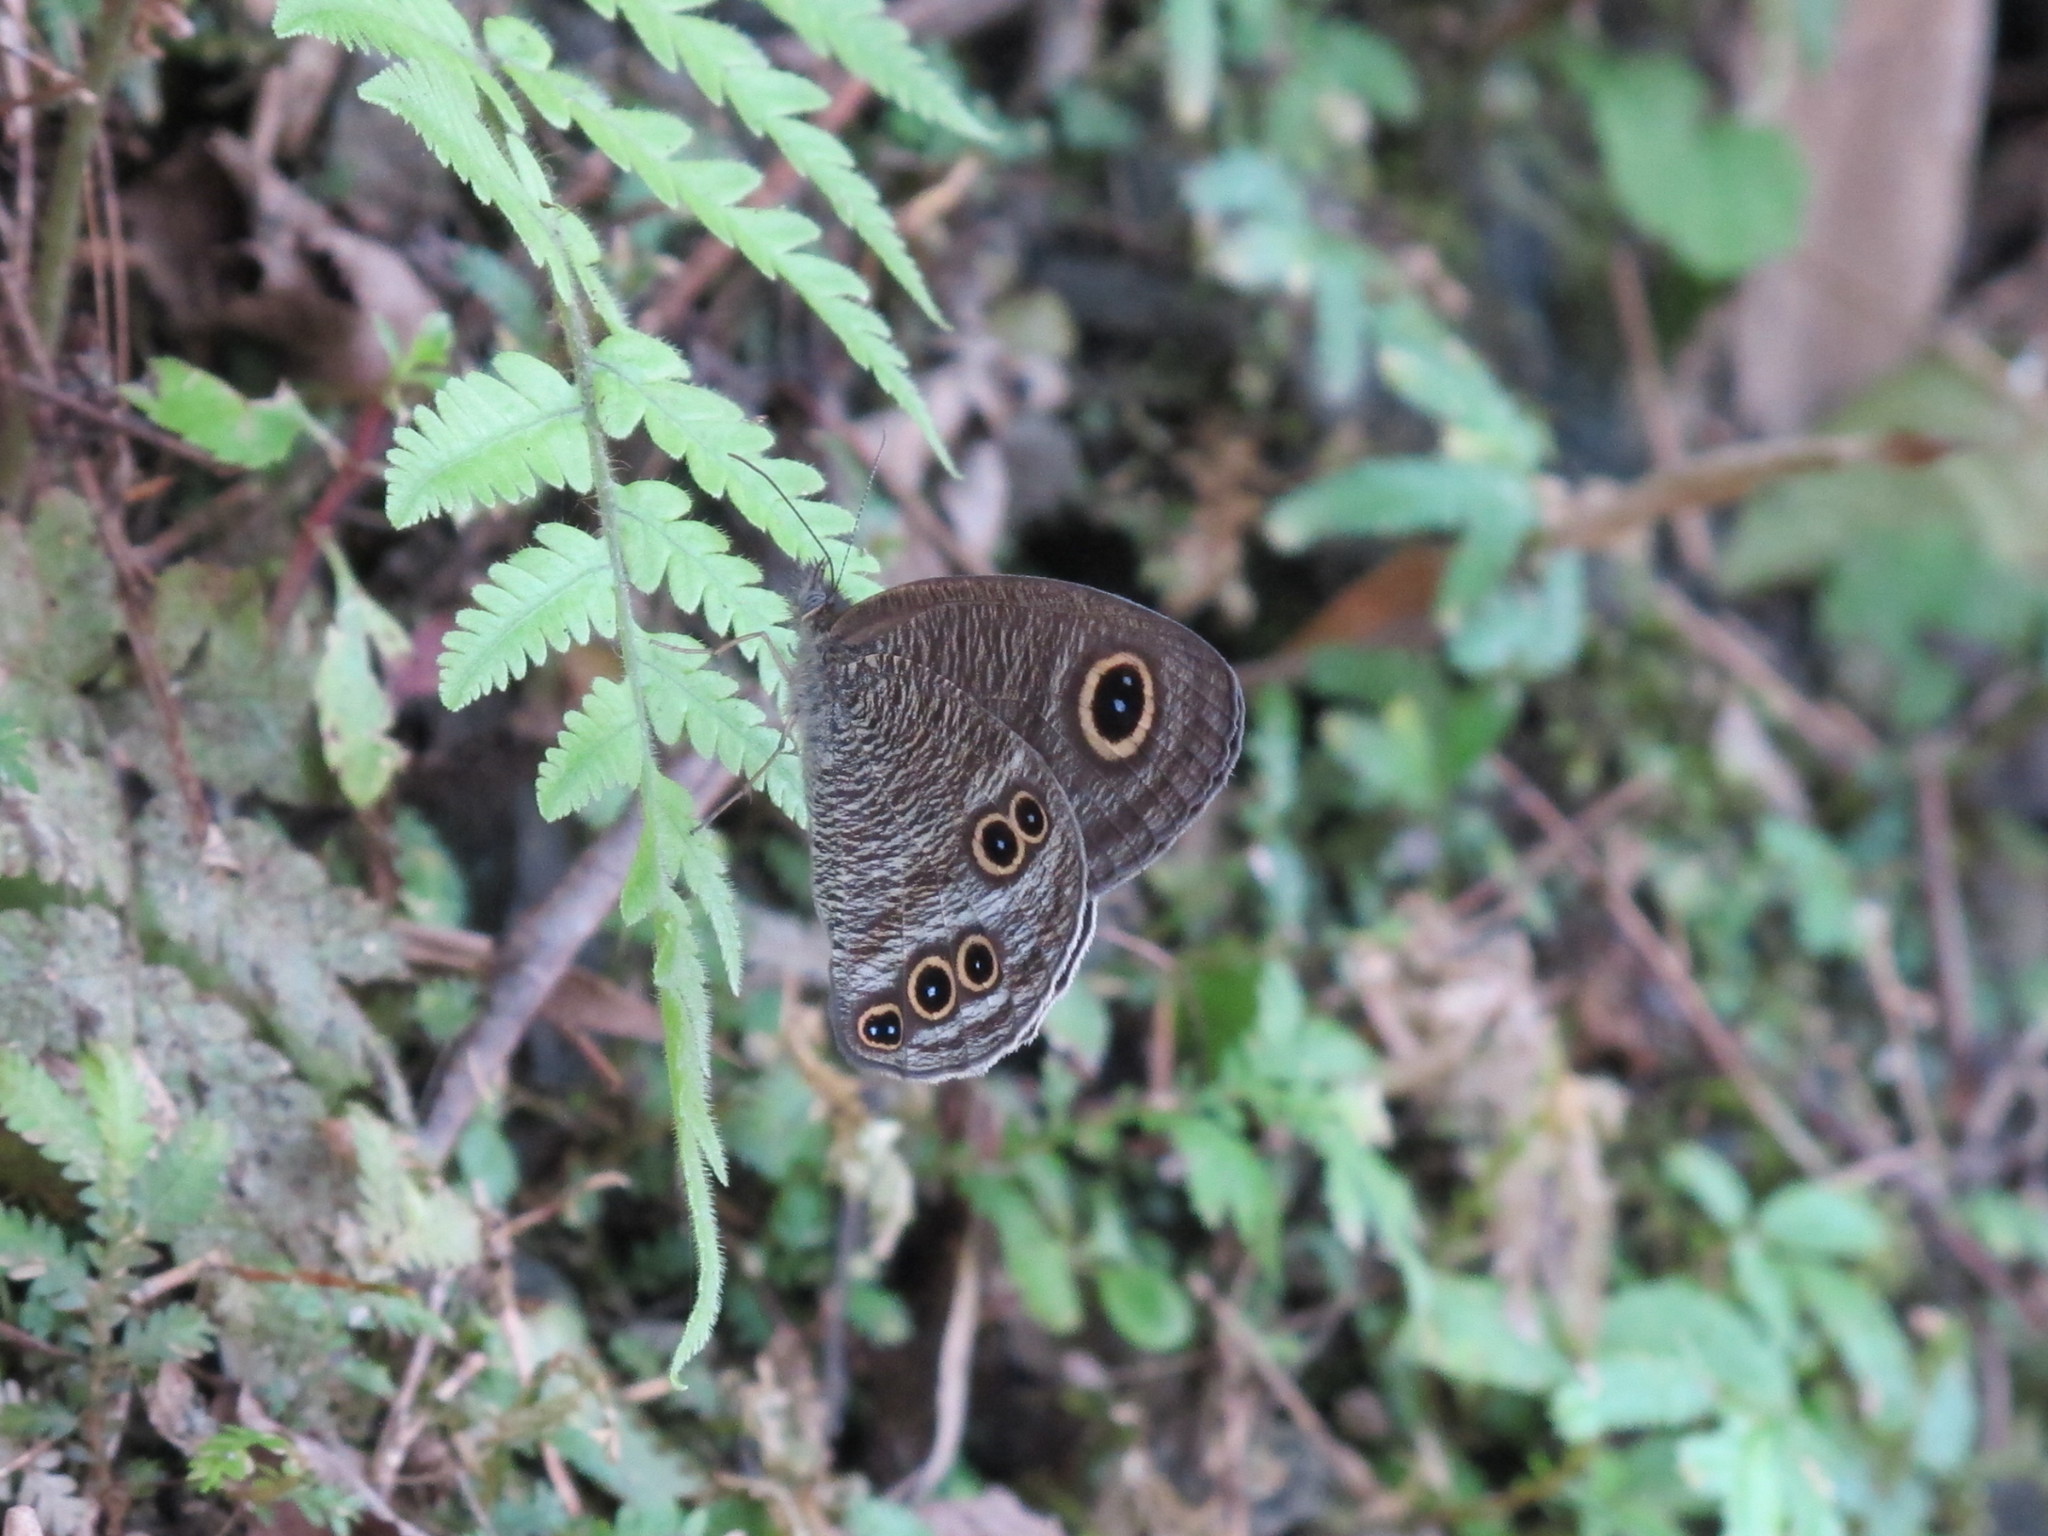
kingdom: Animalia
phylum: Arthropoda
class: Insecta
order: Lepidoptera
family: Nymphalidae
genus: Ypthima
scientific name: Ypthima formosana
